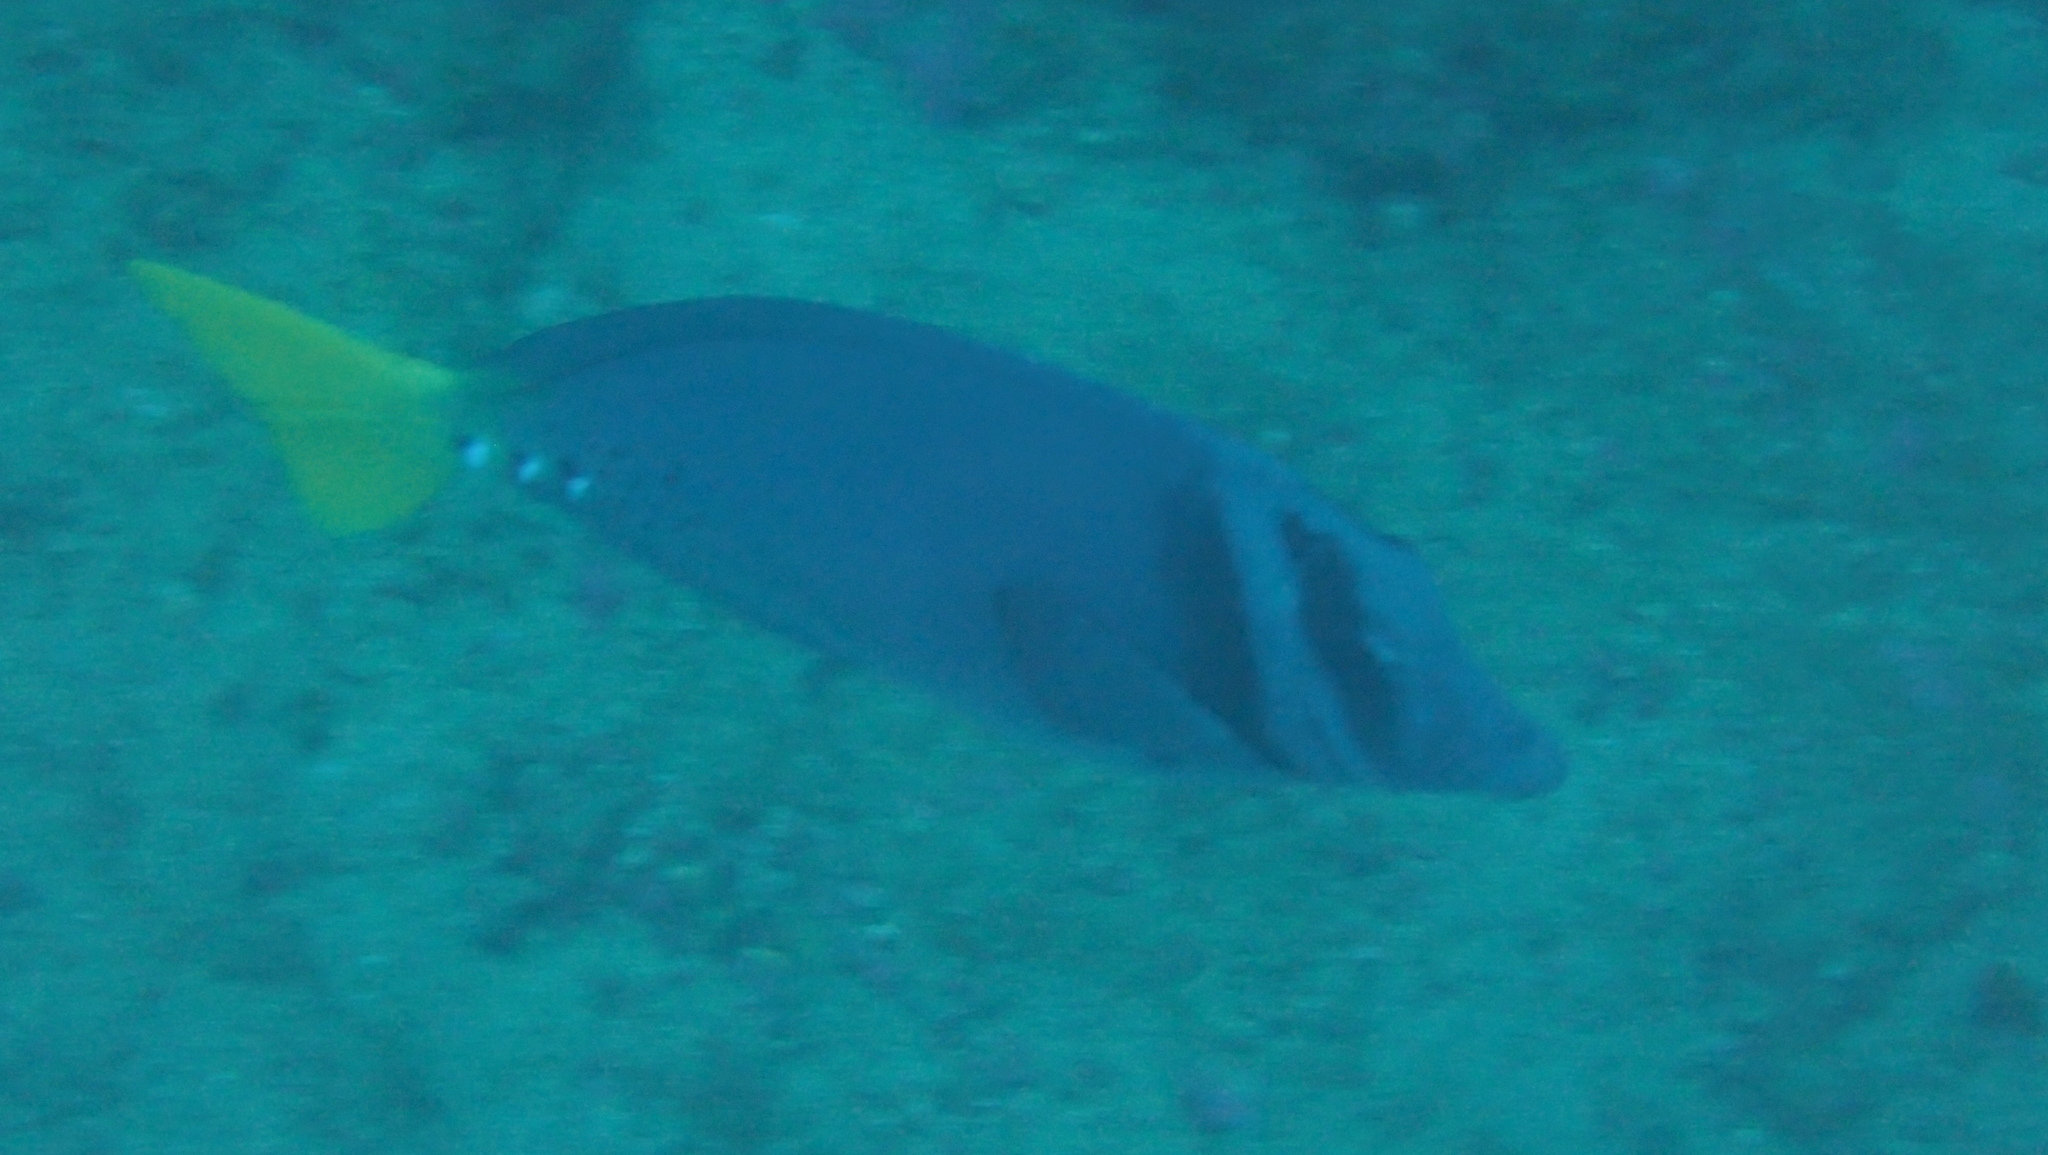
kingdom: Animalia
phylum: Chordata
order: Perciformes
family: Acanthuridae
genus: Prionurus
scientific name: Prionurus laticlavius
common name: Razor surgeonfish
